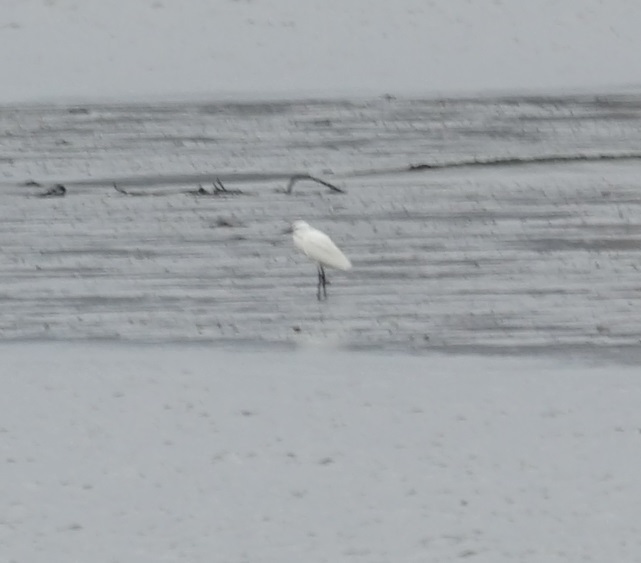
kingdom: Animalia
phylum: Chordata
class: Aves
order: Pelecaniformes
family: Ardeidae
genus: Egretta
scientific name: Egretta garzetta
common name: Little egret
